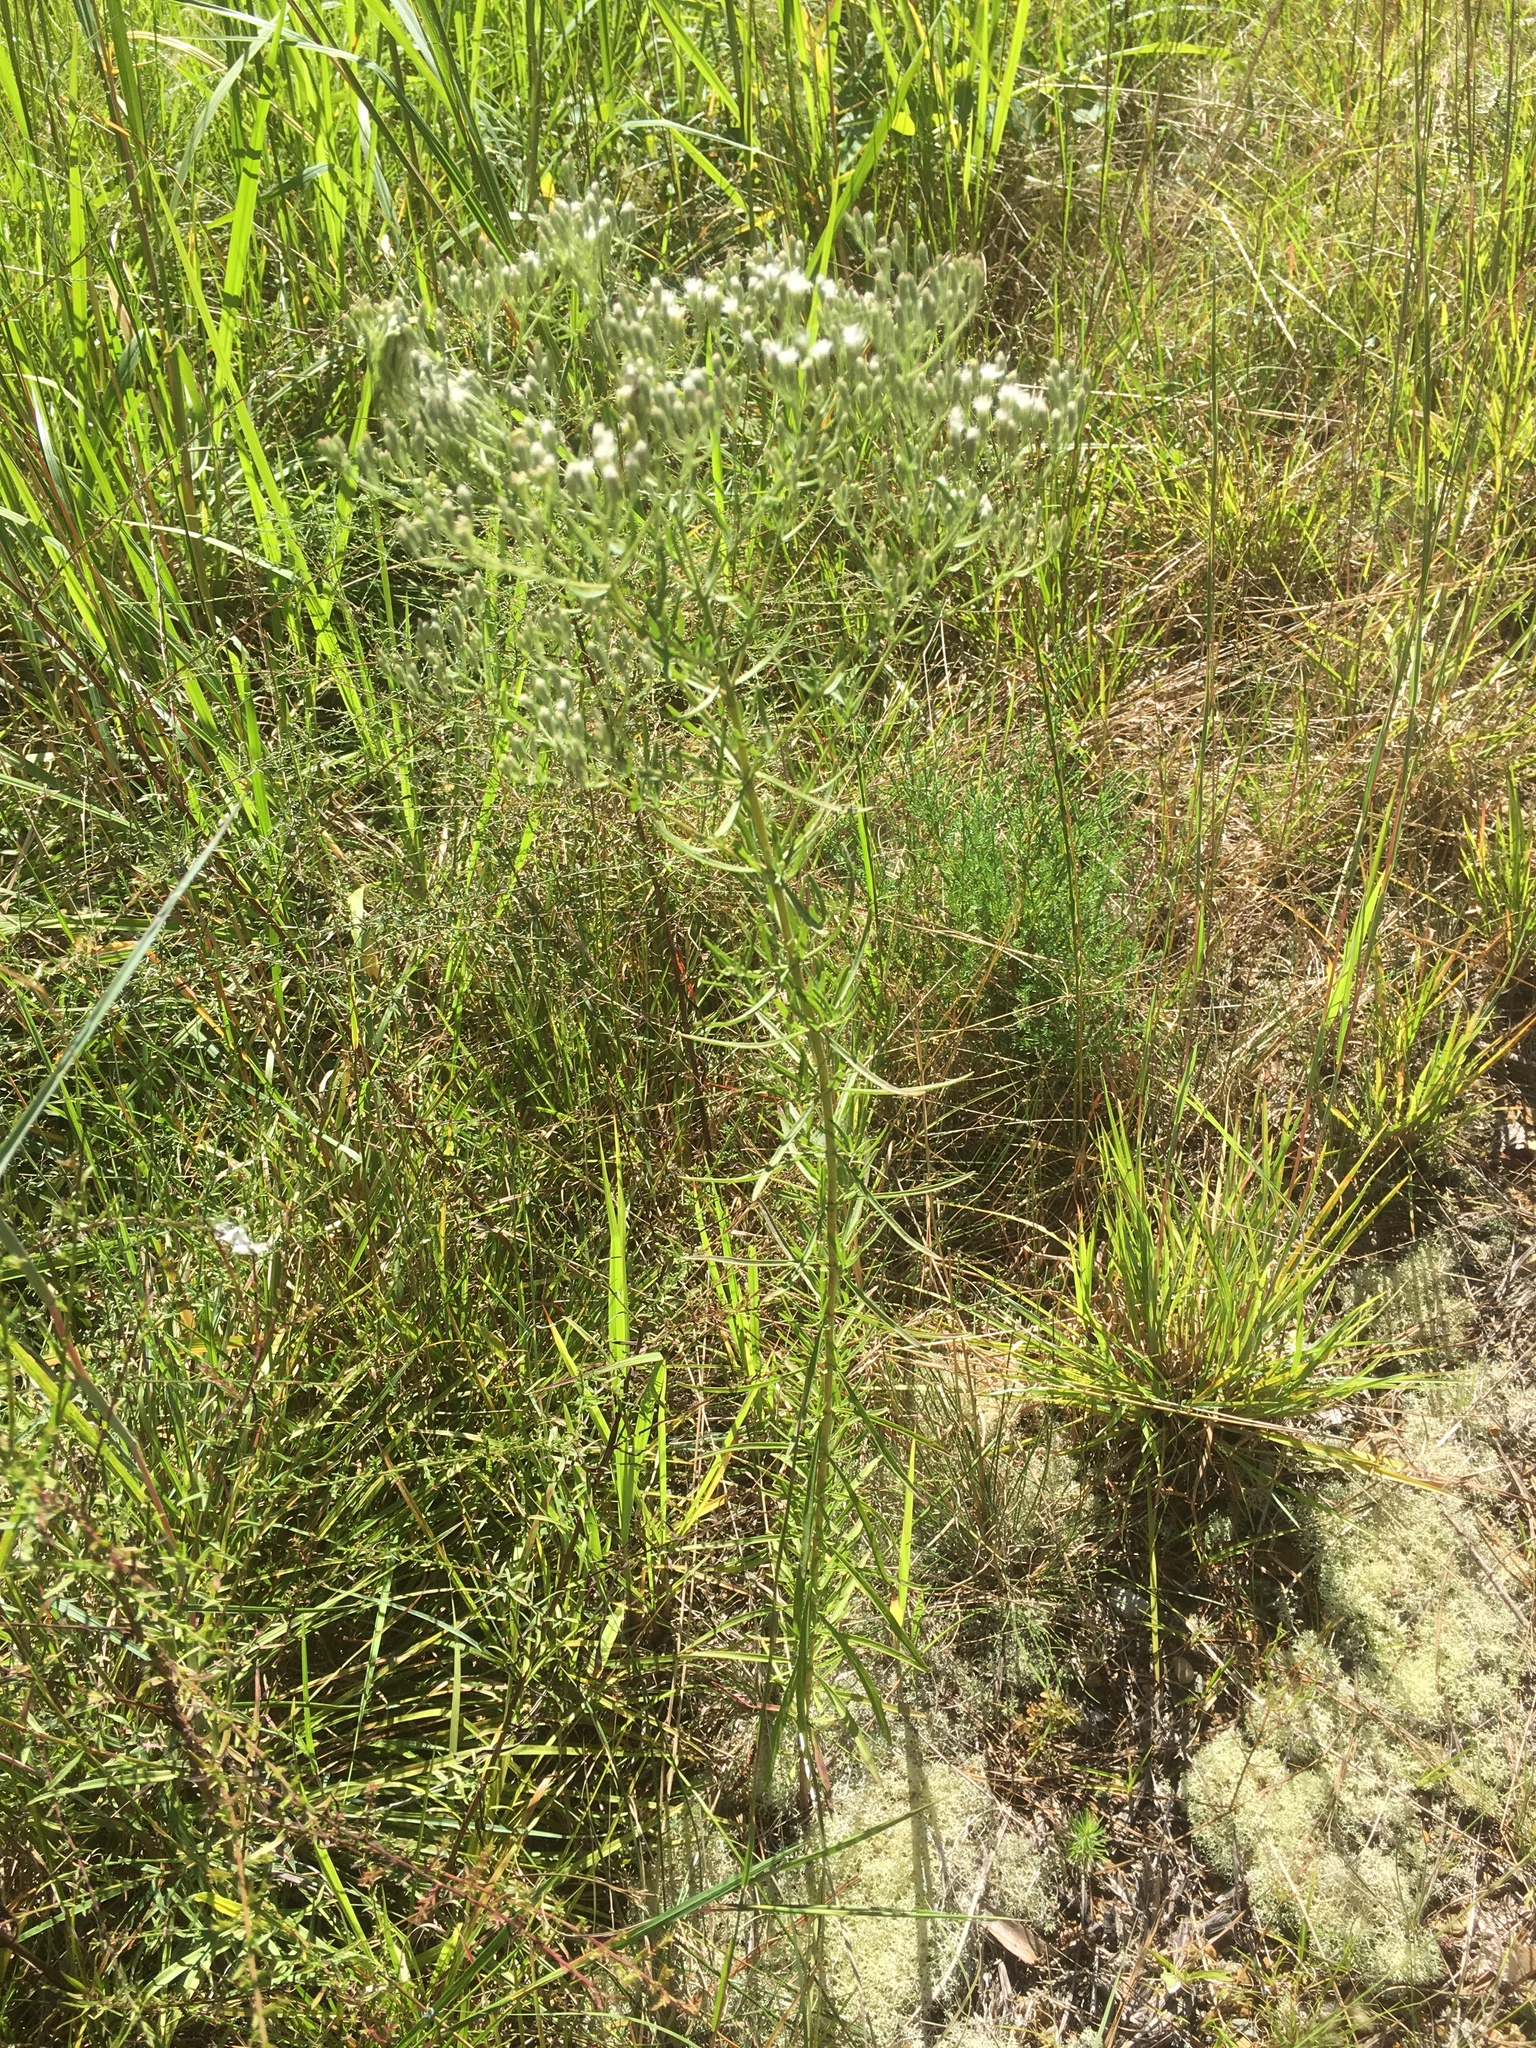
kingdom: Plantae
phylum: Tracheophyta
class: Magnoliopsida
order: Asterales
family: Asteraceae
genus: Eupatorium
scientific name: Eupatorium hyssopifolium
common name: Hyssop-leaf thoroughwort
